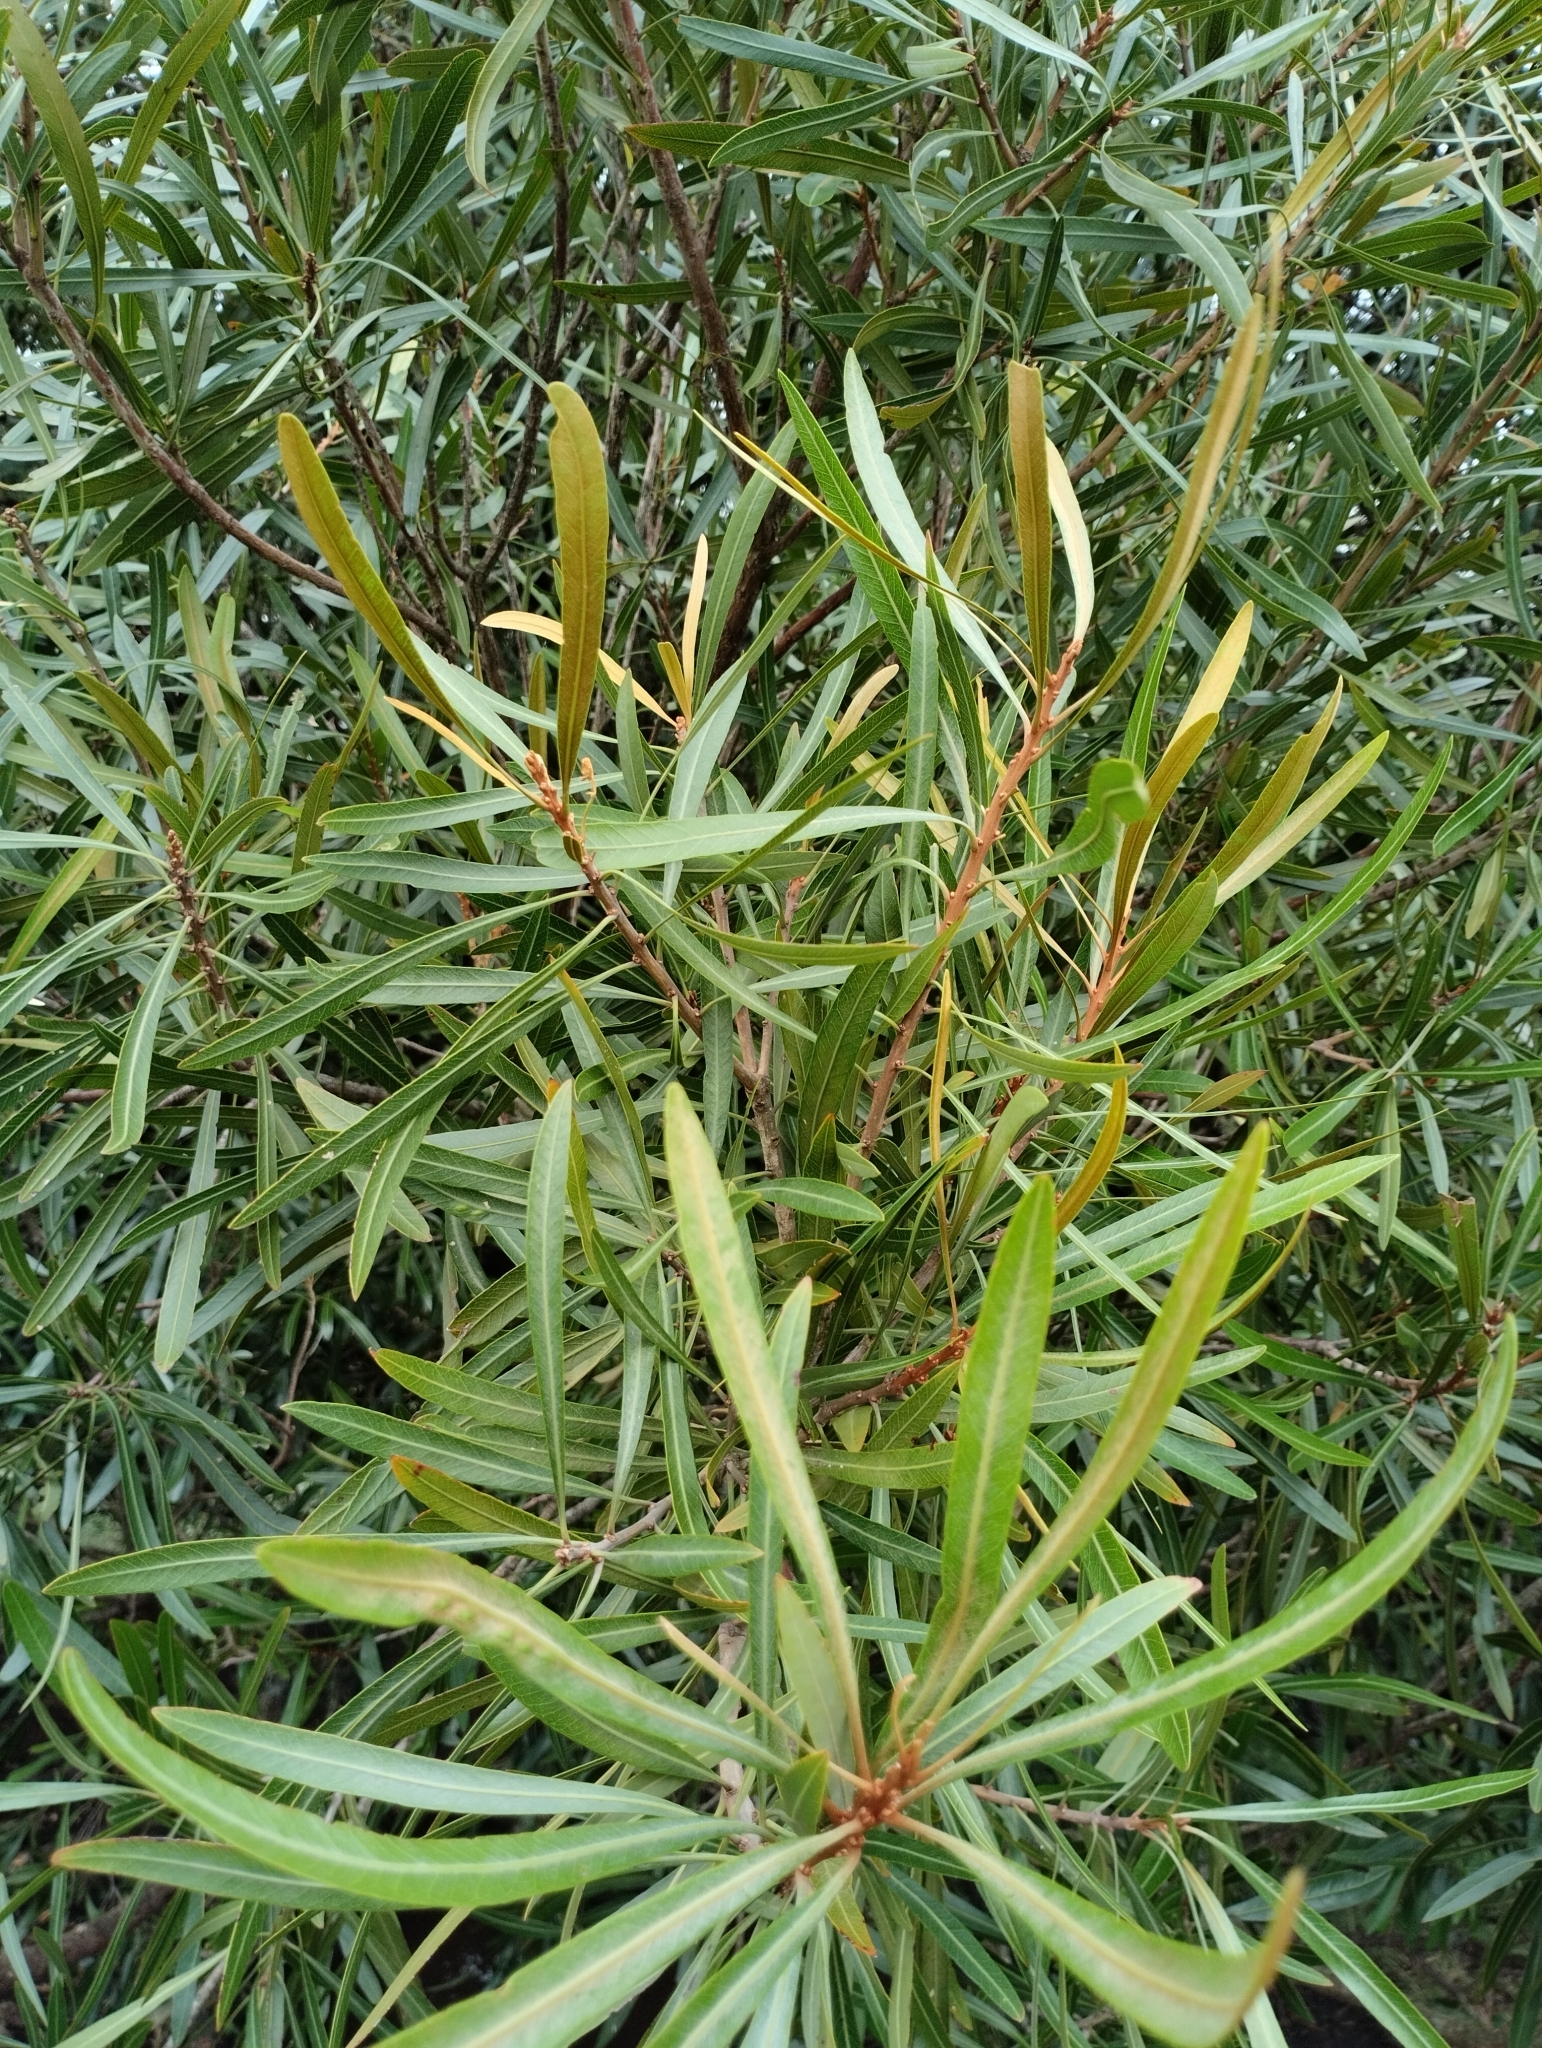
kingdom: Plantae
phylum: Tracheophyta
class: Magnoliopsida
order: Ericales
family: Sapotaceae
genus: Labatia
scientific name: Labatia salicifolia
